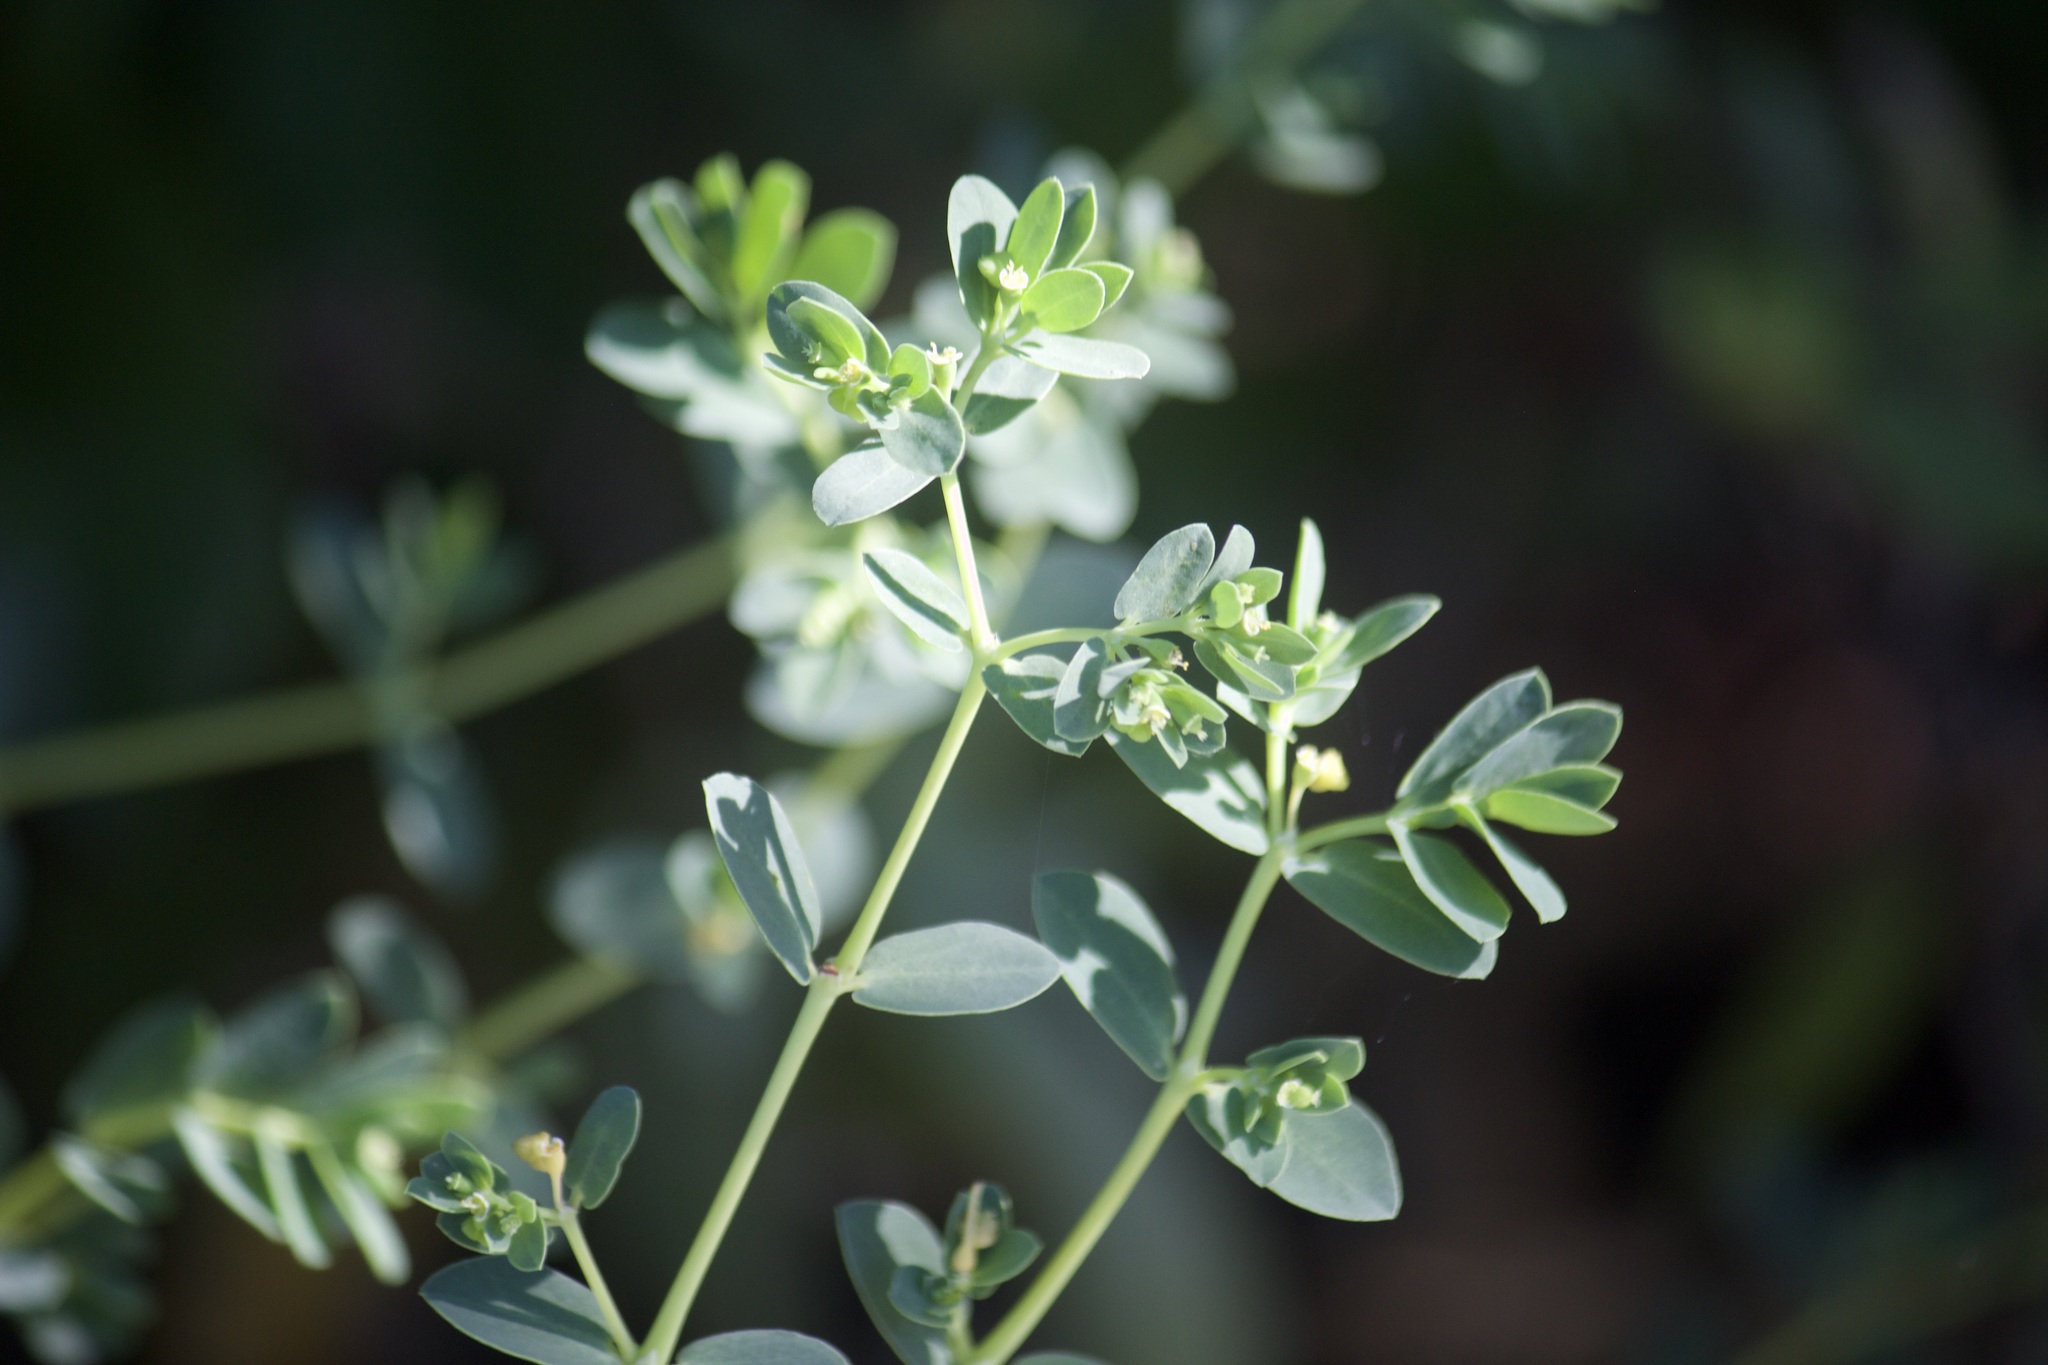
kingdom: Plantae
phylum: Tracheophyta
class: Magnoliopsida
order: Malpighiales
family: Euphorbiaceae
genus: Euphorbia
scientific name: Euphorbia mesembryanthemifolia
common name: Coastal beach sandmat
